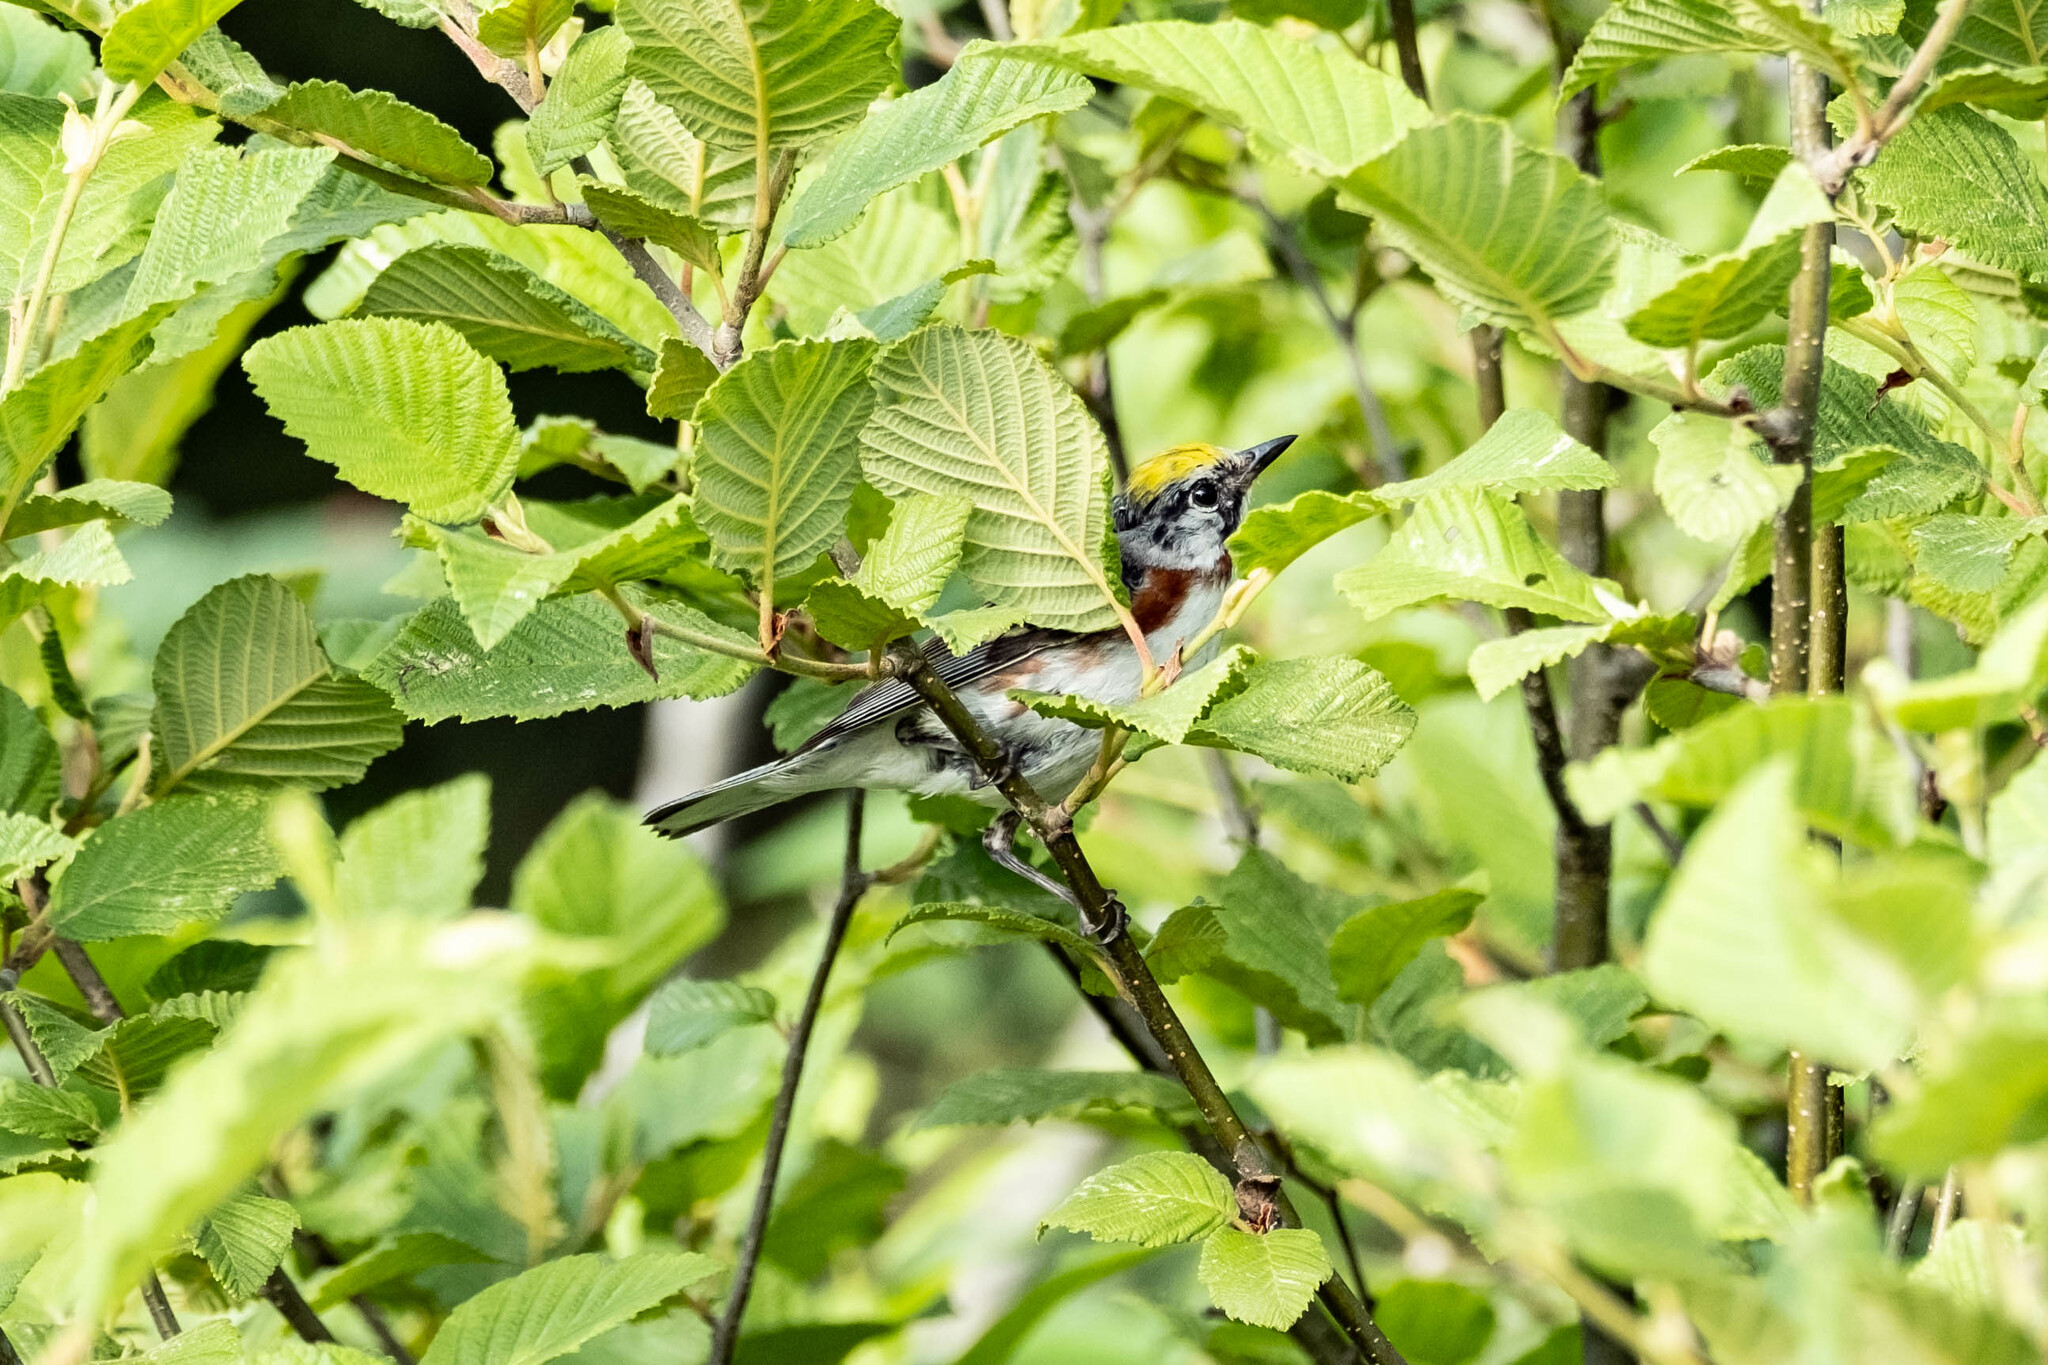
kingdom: Animalia
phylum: Chordata
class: Aves
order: Passeriformes
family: Parulidae
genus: Setophaga
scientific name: Setophaga pensylvanica
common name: Chestnut-sided warbler
